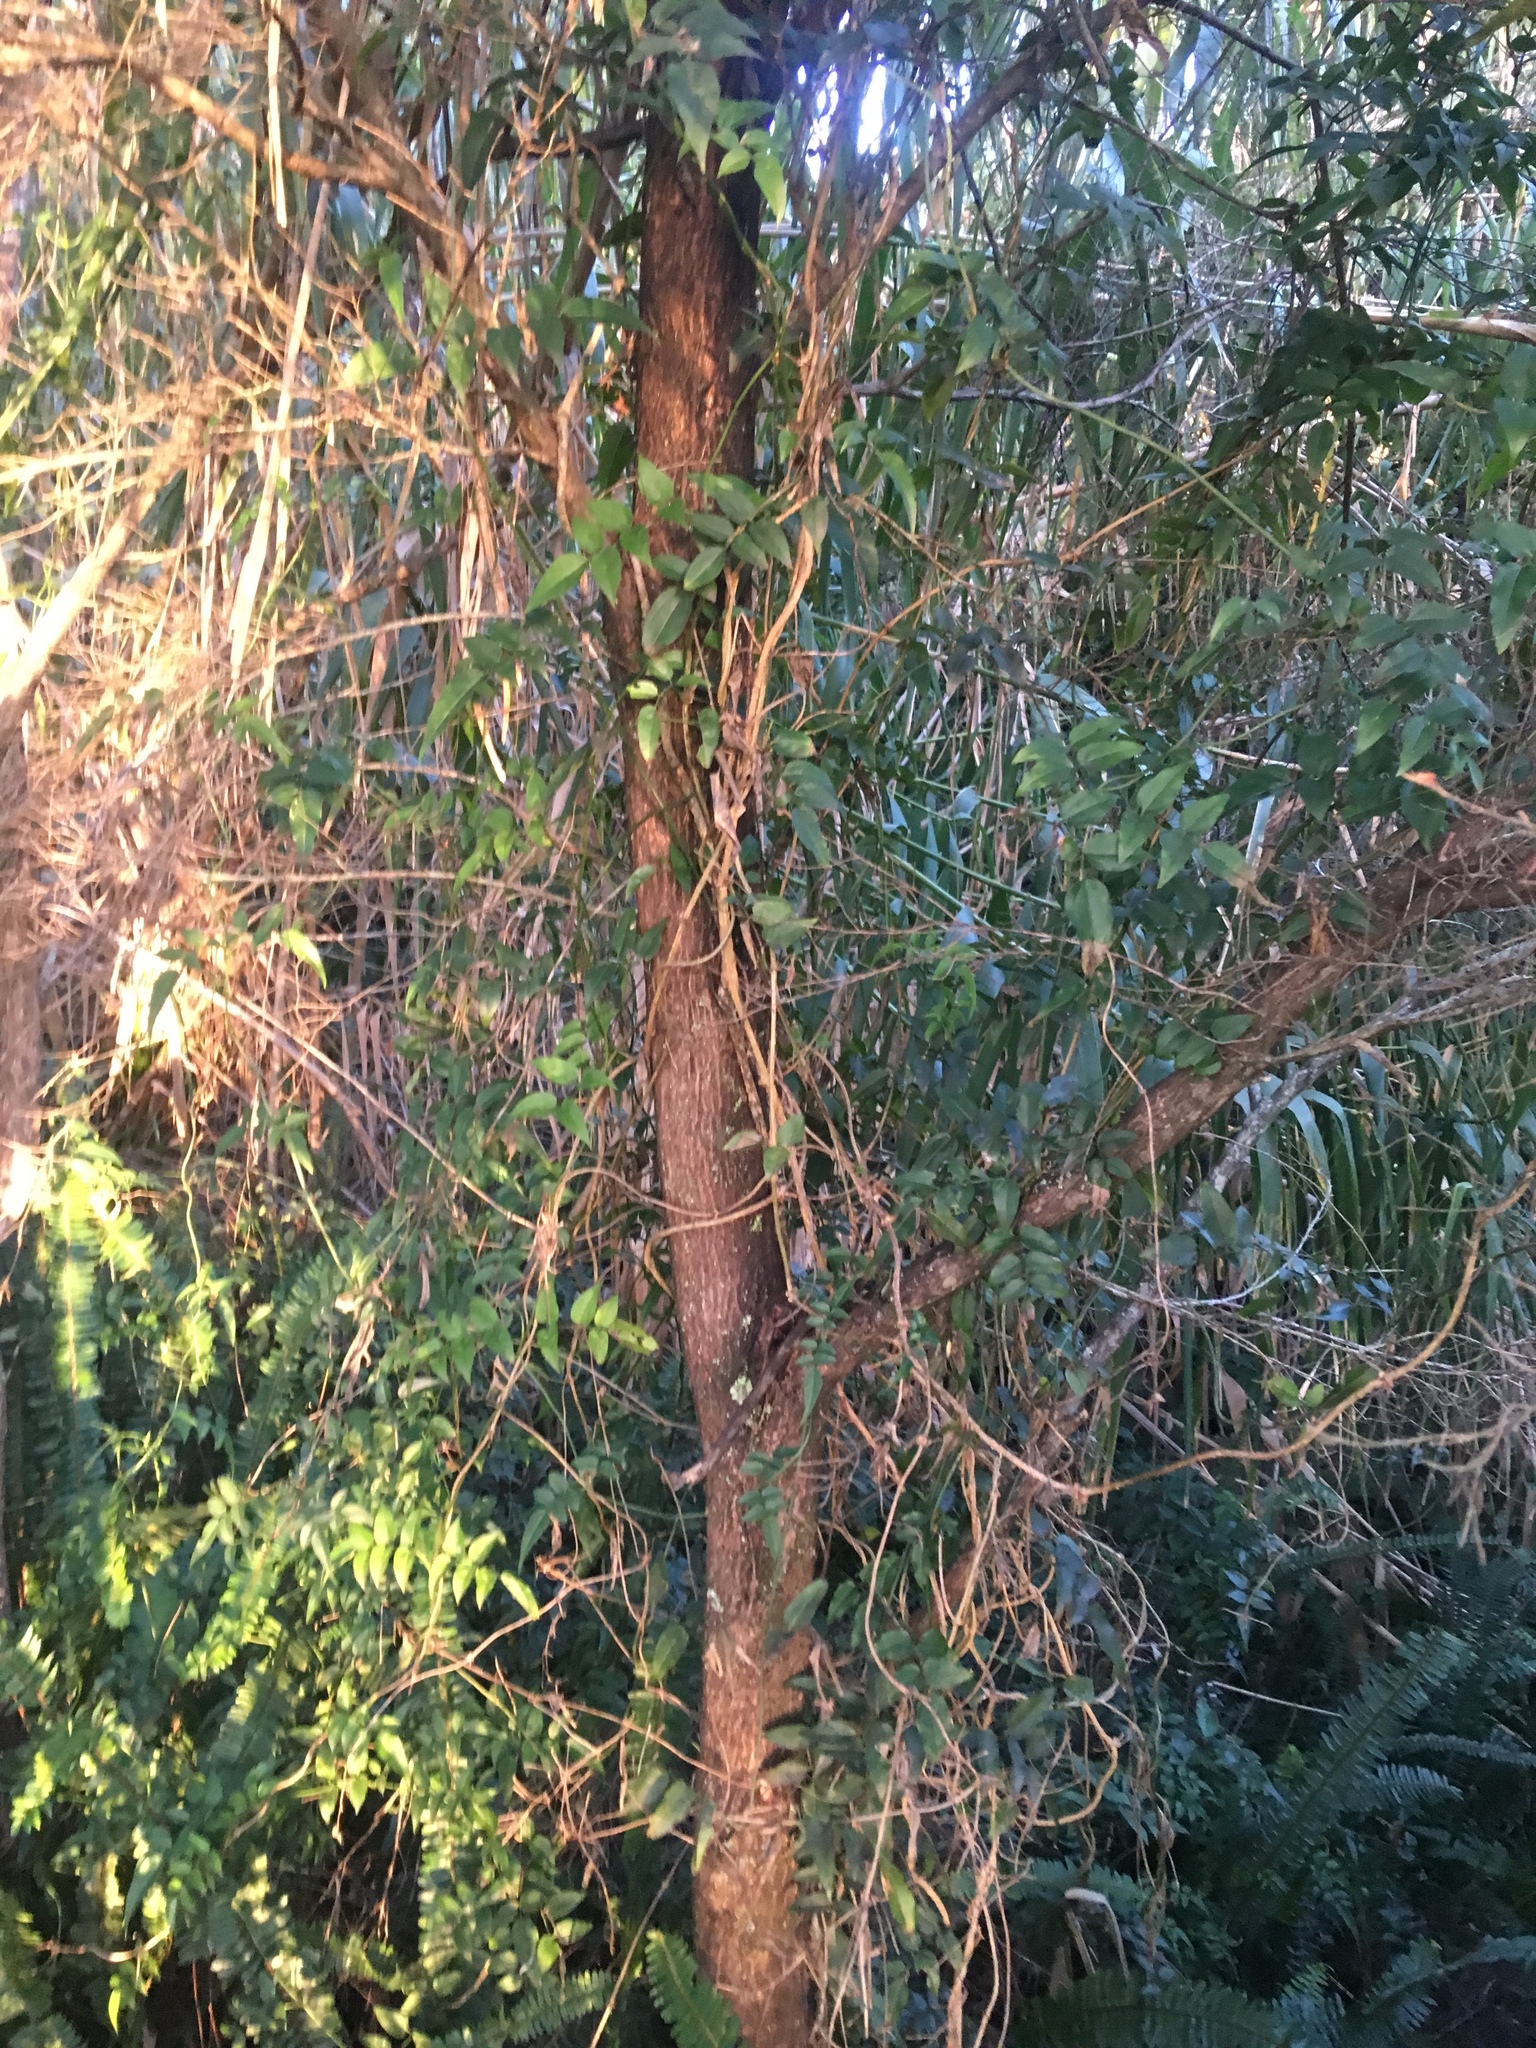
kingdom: Plantae
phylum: Tracheophyta
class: Magnoliopsida
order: Lamiales
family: Oleaceae
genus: Jasminum
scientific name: Jasminum polyanthum
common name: Pink jasmine
